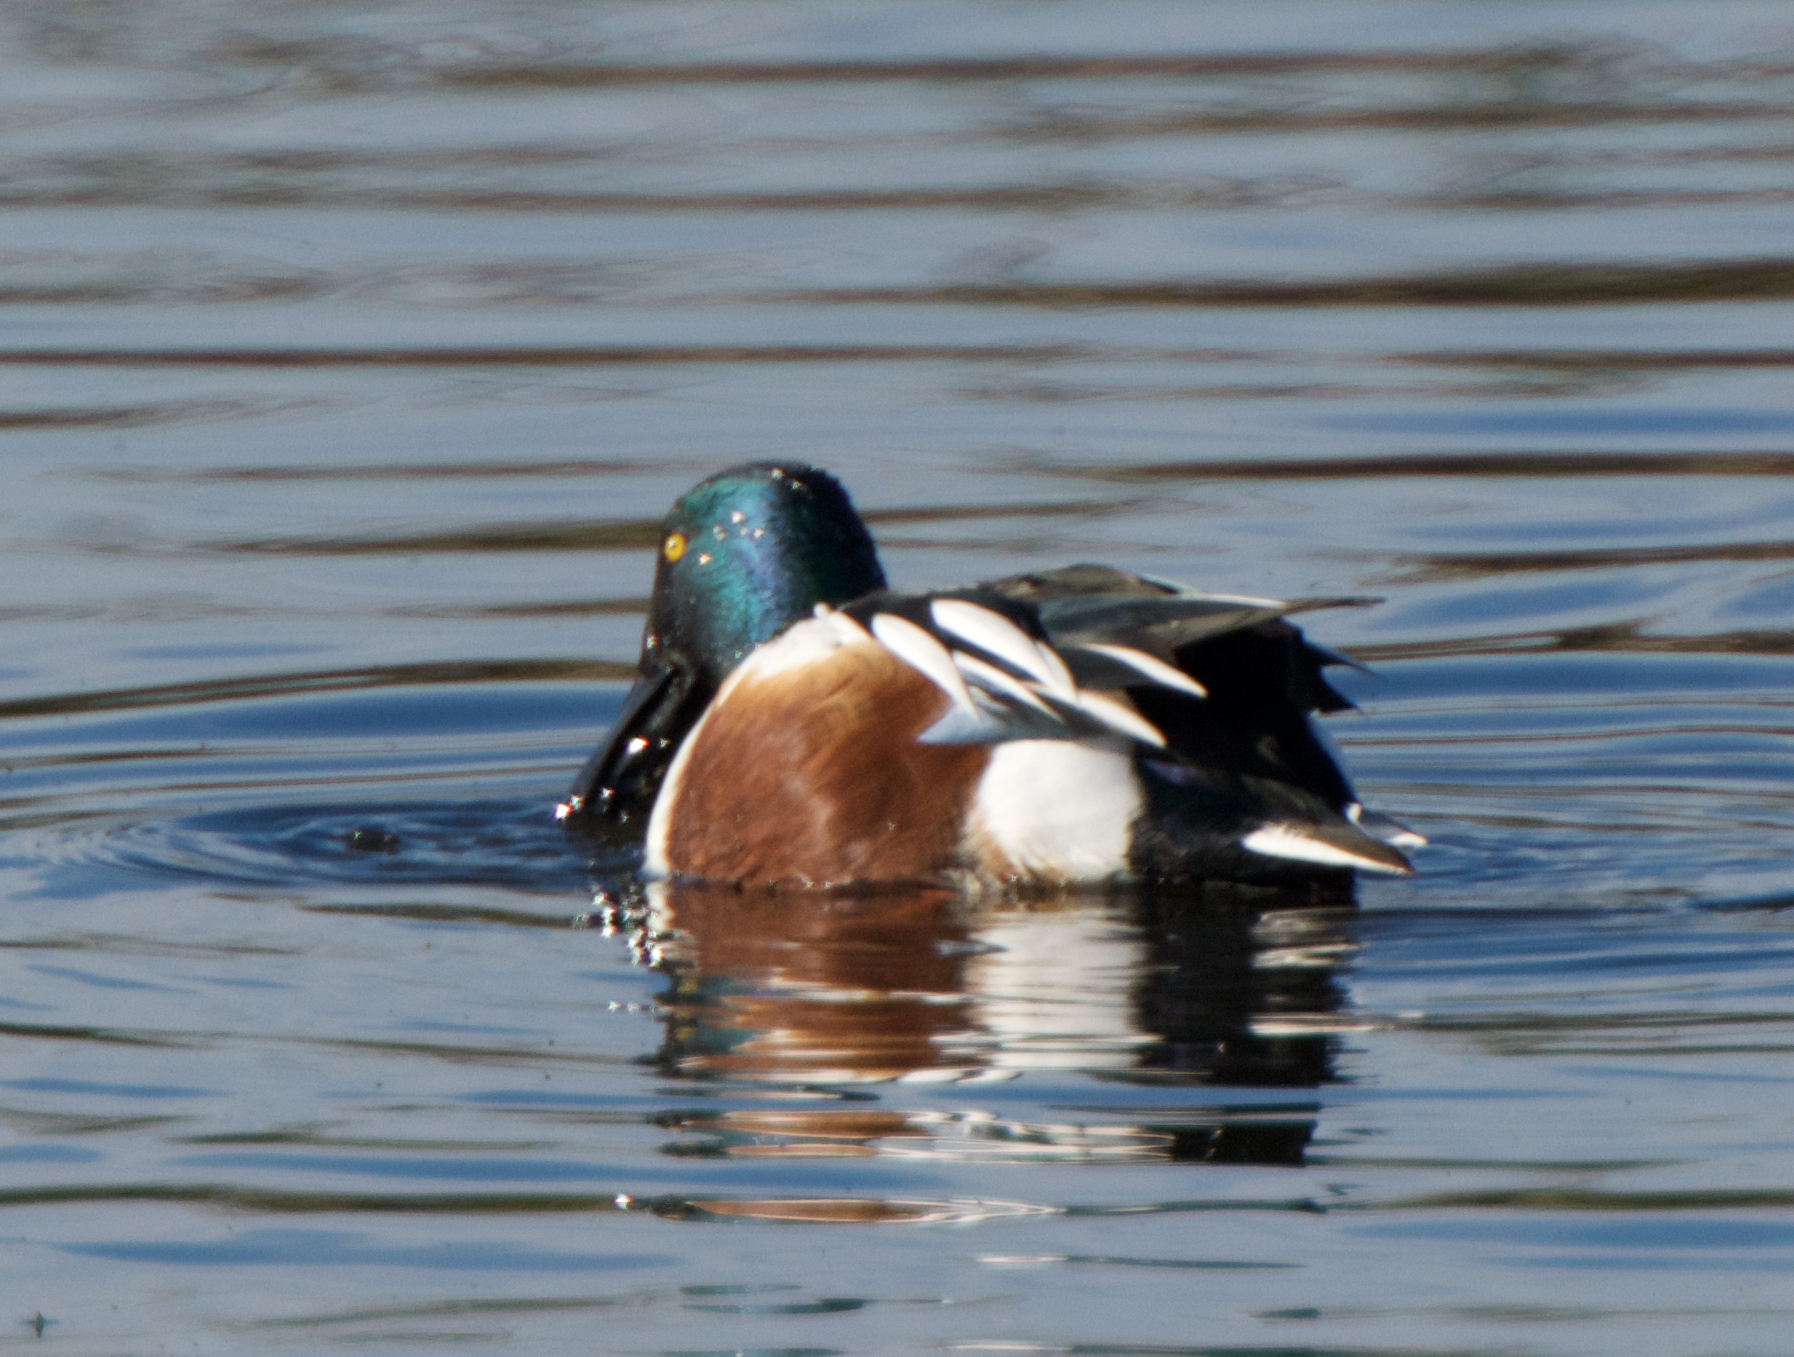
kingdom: Animalia
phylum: Chordata
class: Aves
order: Anseriformes
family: Anatidae
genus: Spatula
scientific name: Spatula clypeata
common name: Northern shoveler
